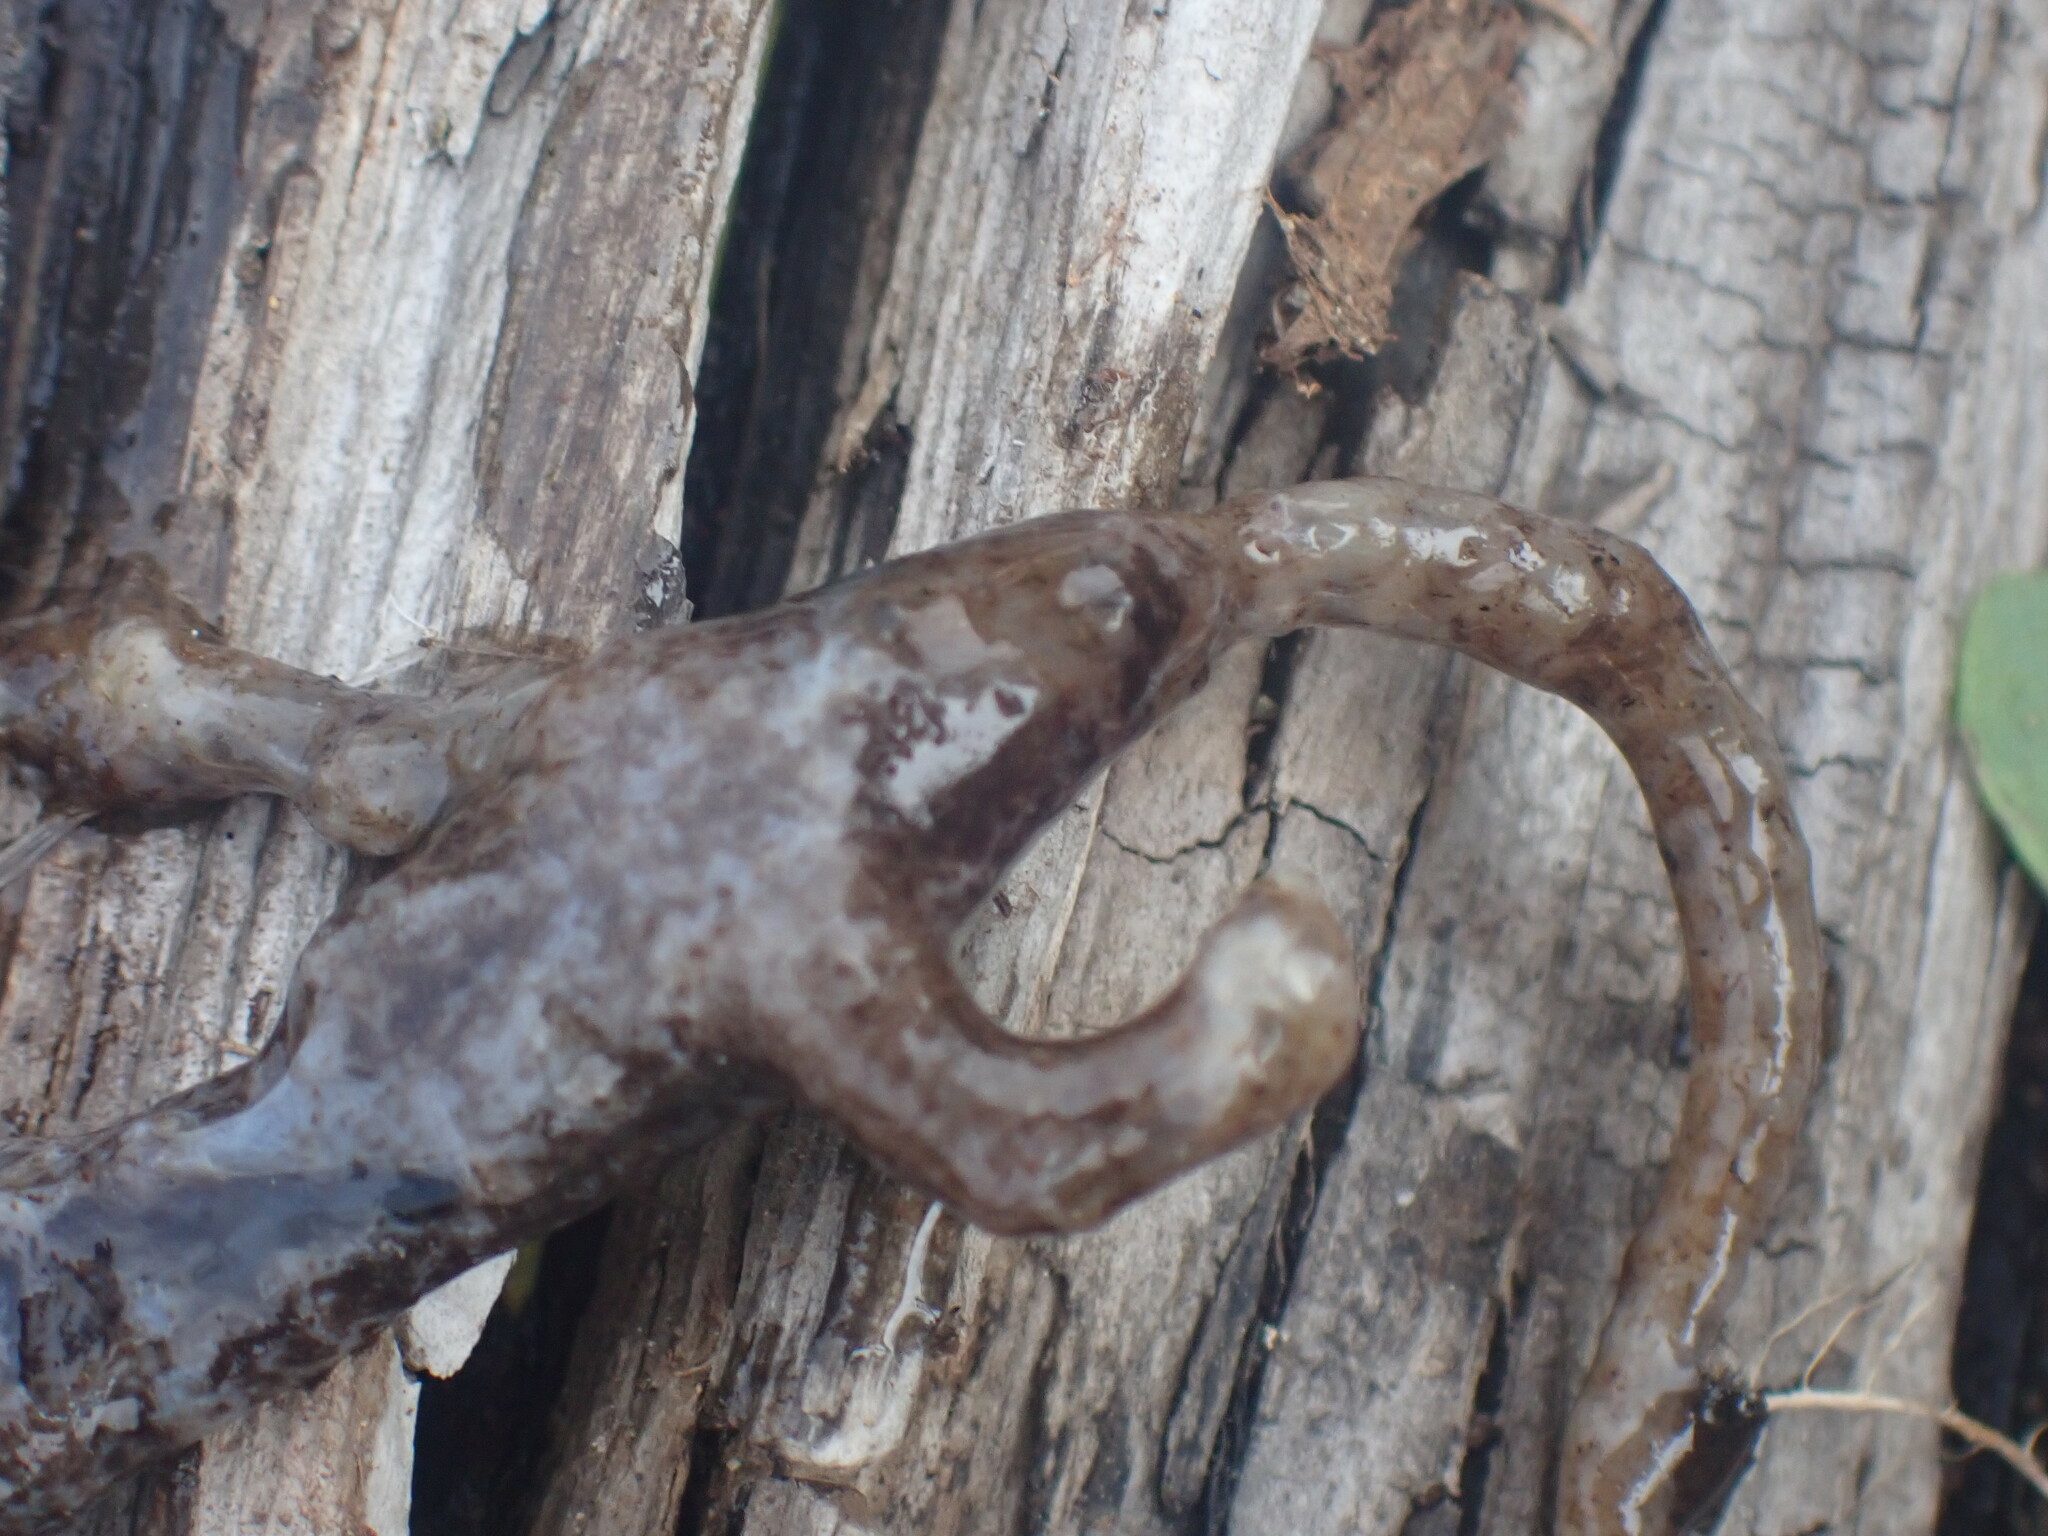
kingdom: Animalia
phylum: Chordata
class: Amphibia
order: Caudata
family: Salamandridae
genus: Taricha
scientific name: Taricha granulosa
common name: Roughskin newt
